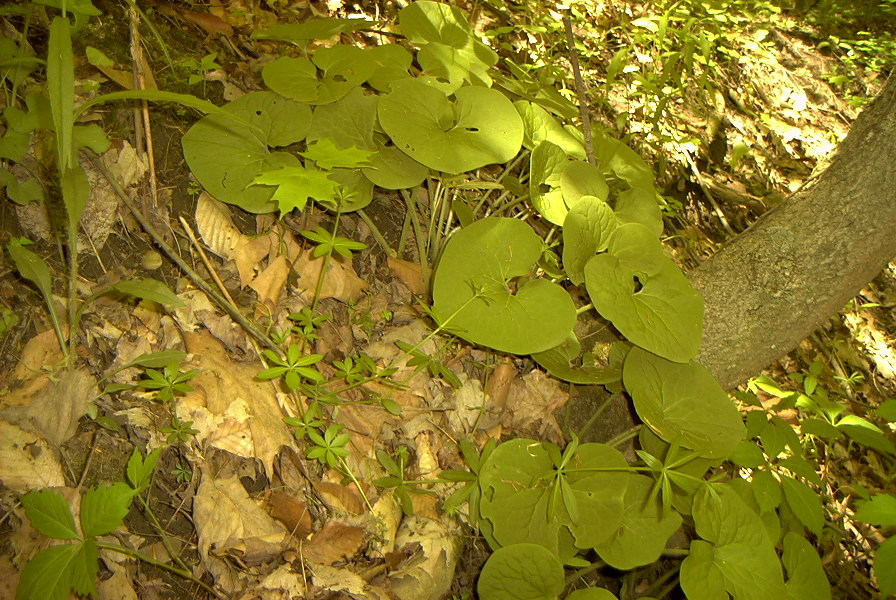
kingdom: Plantae
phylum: Tracheophyta
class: Magnoliopsida
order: Piperales
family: Aristolochiaceae
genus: Asarum
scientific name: Asarum canadense
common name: Wild ginger
